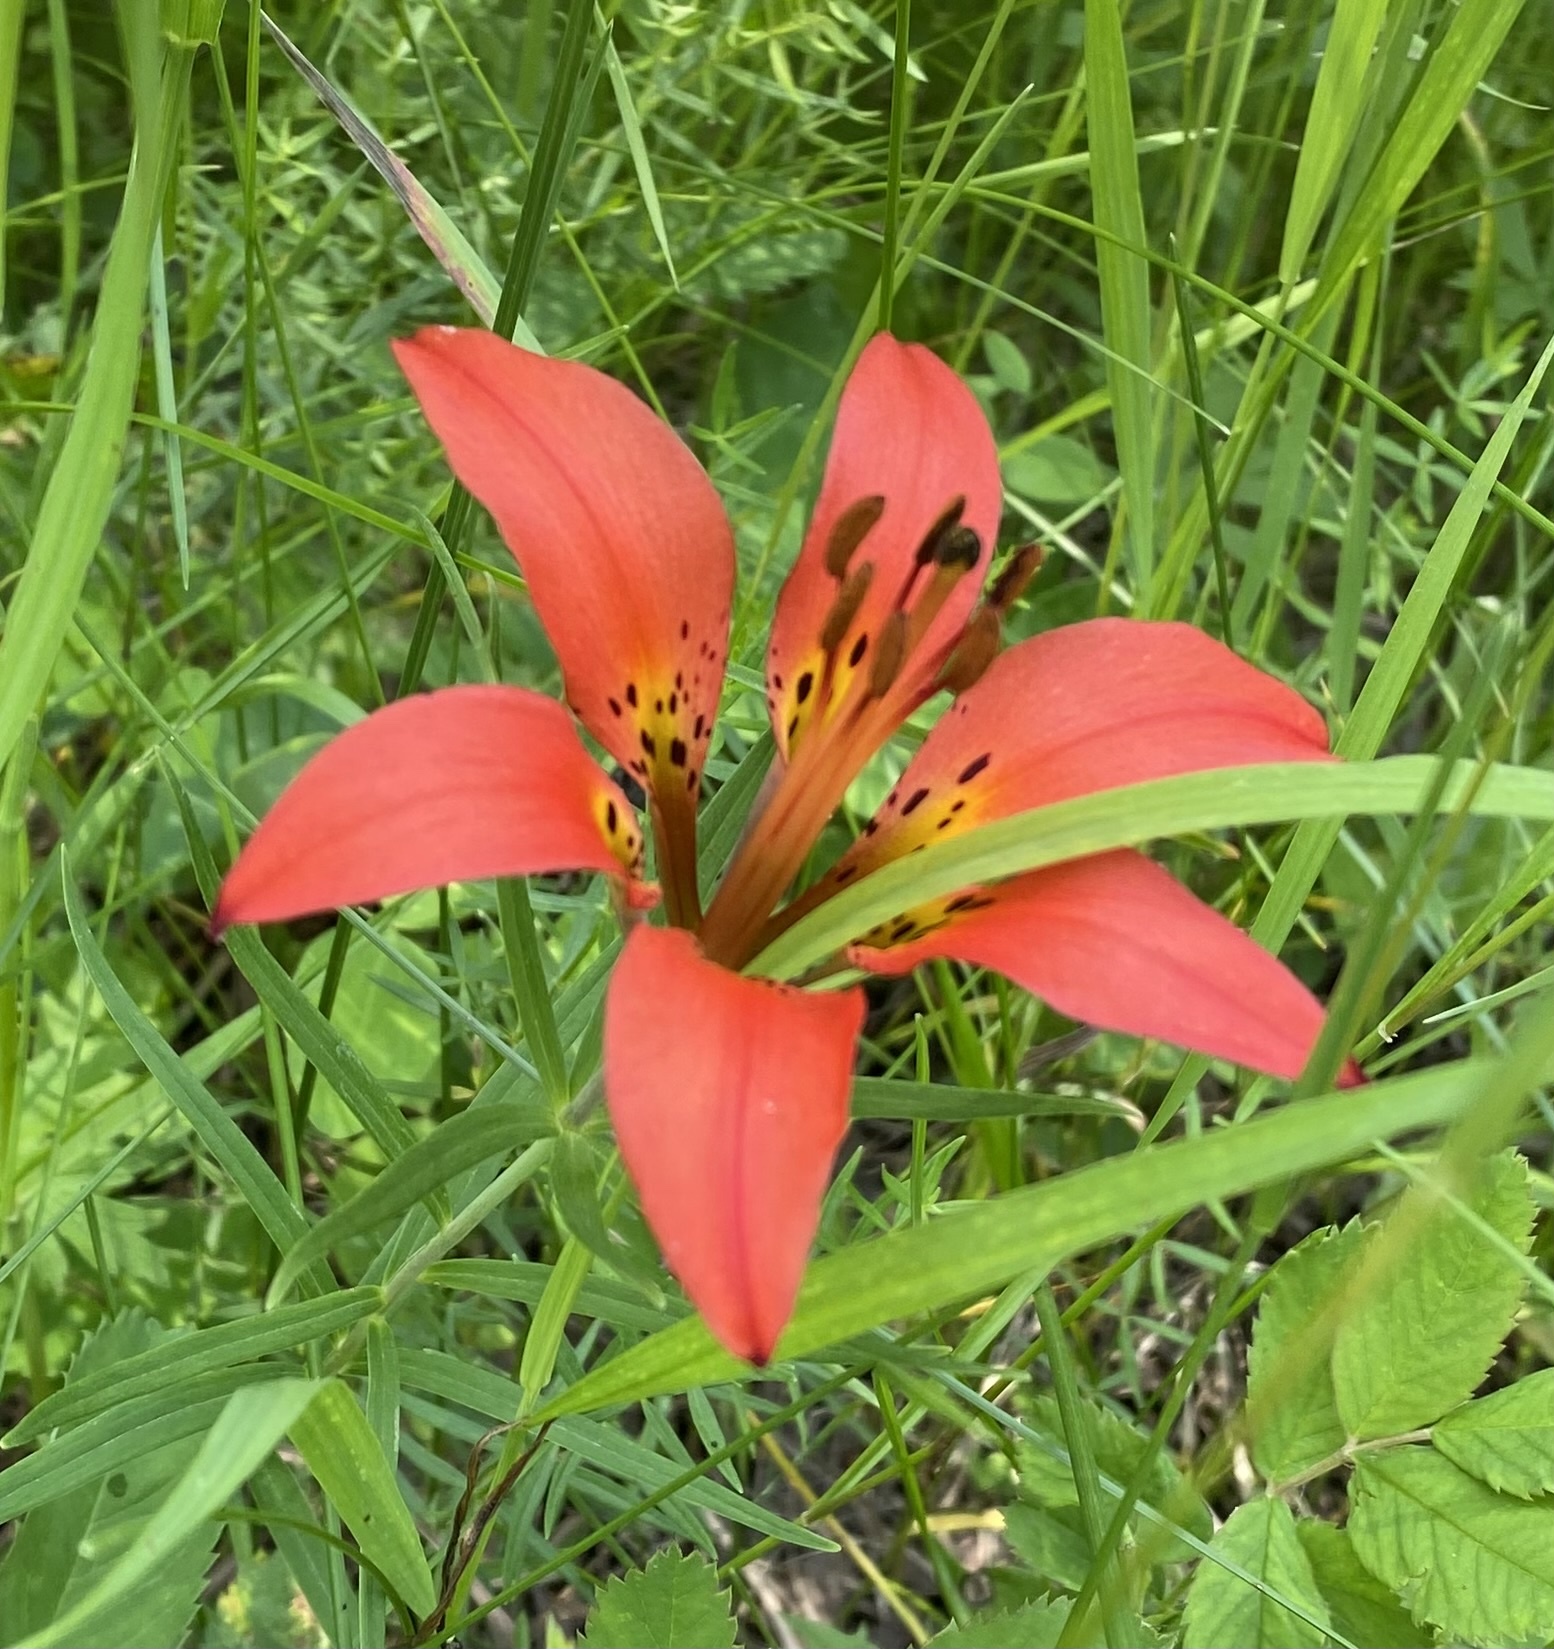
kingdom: Plantae
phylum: Tracheophyta
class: Liliopsida
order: Liliales
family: Liliaceae
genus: Lilium
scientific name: Lilium philadelphicum
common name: Red lily
